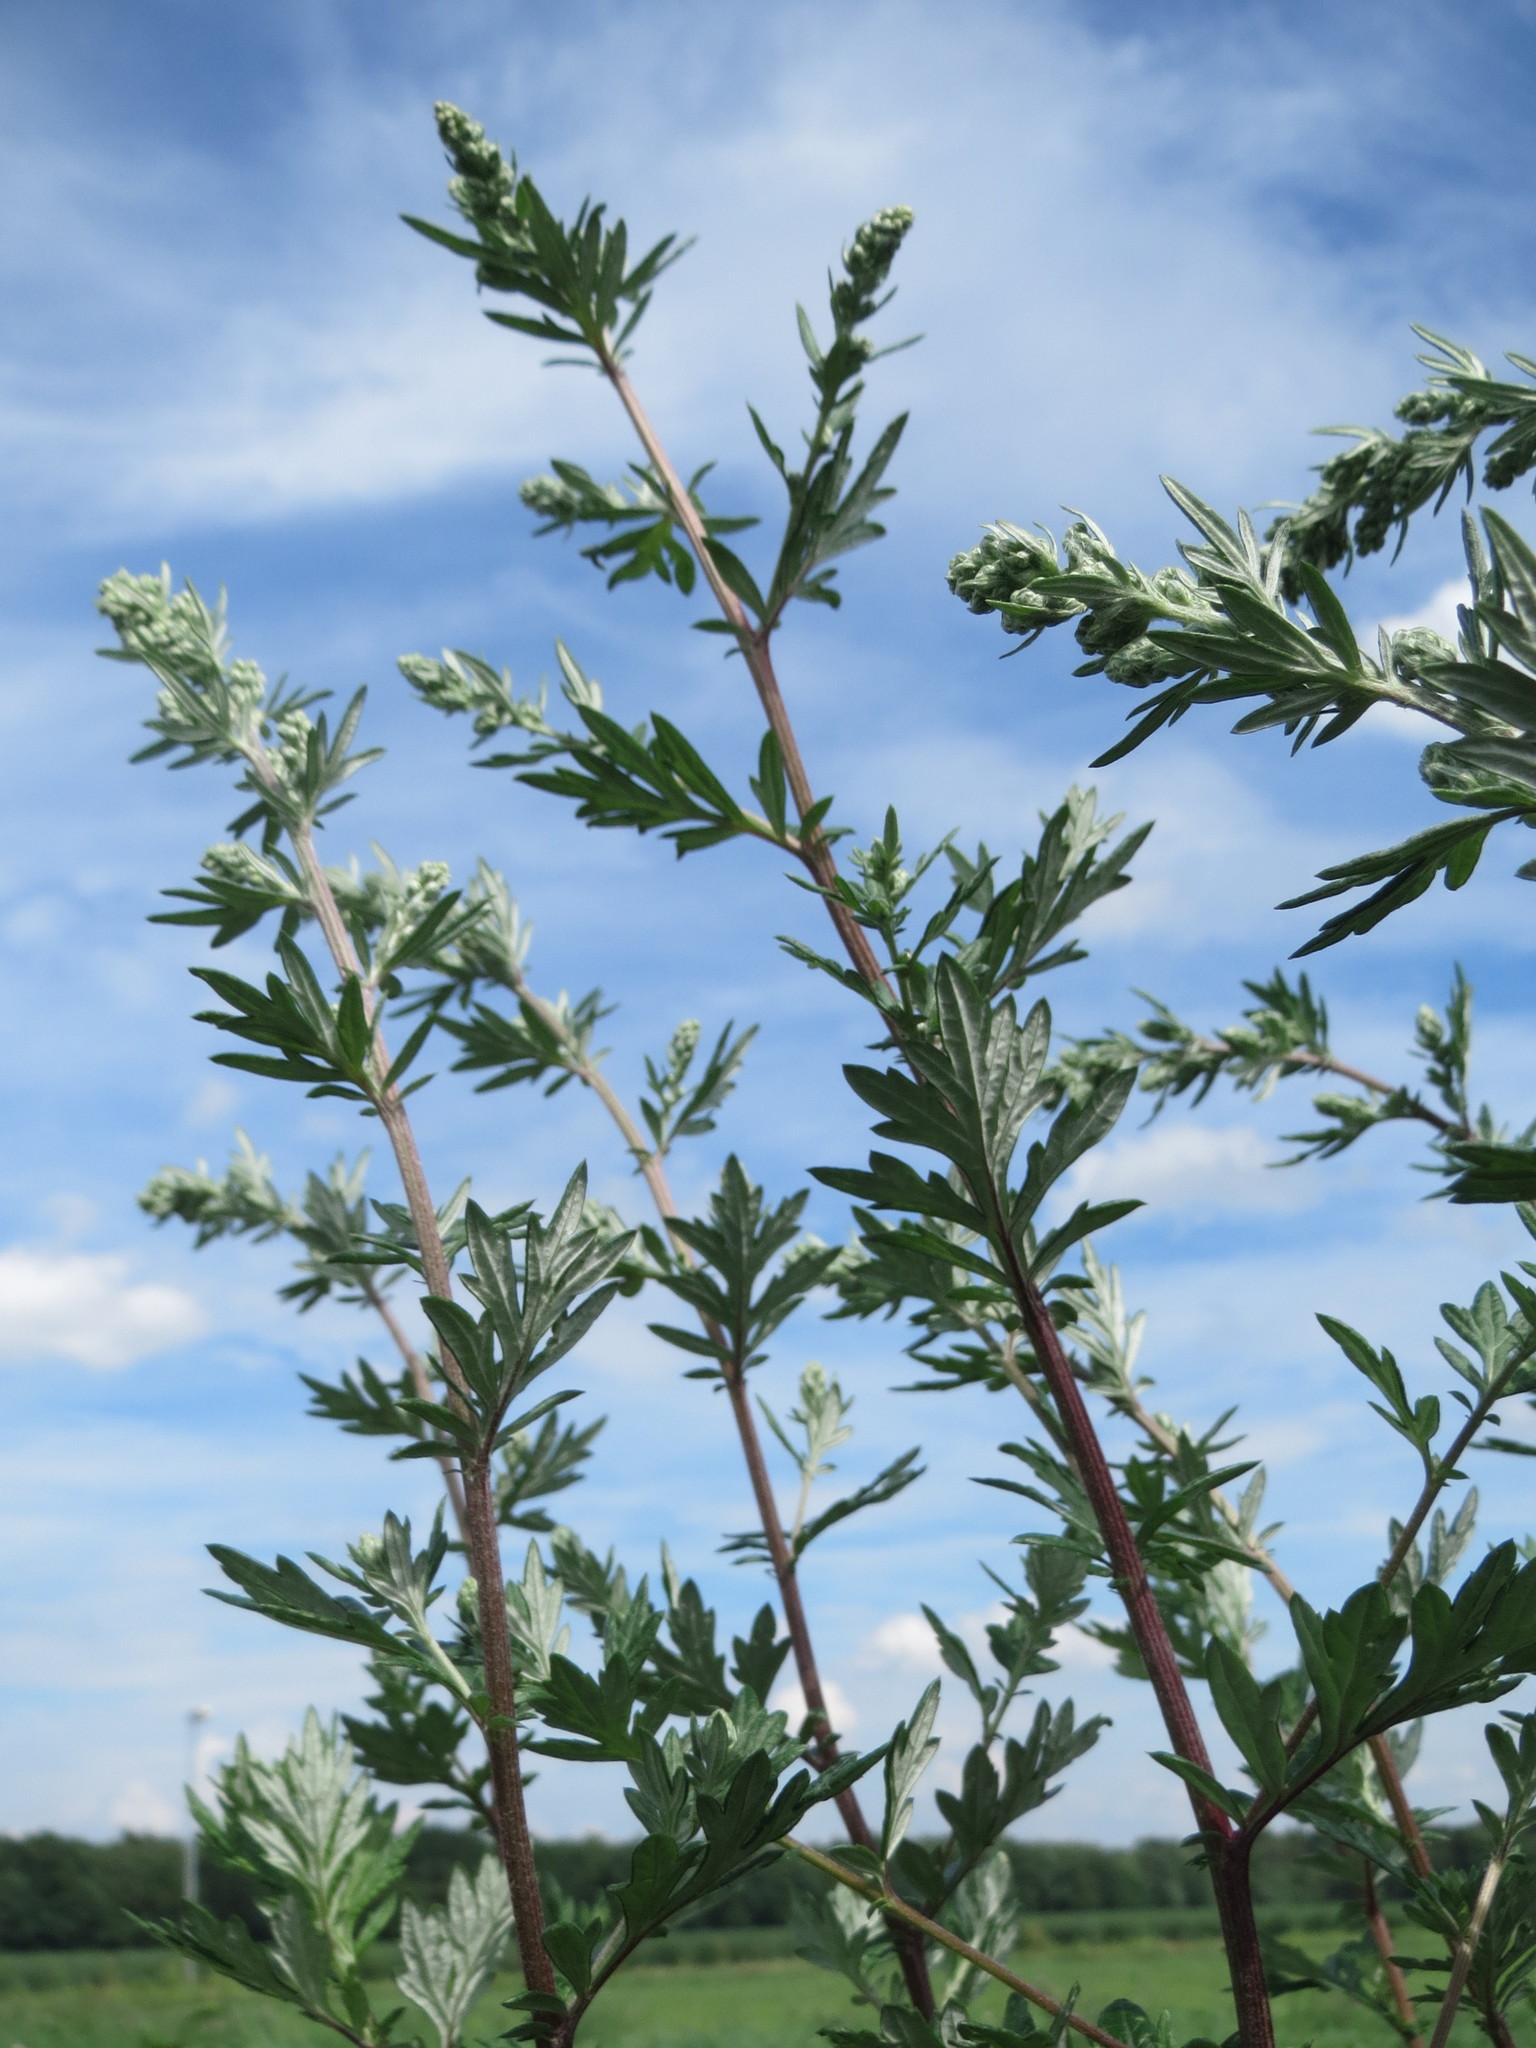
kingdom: Plantae
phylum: Tracheophyta
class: Magnoliopsida
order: Asterales
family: Asteraceae
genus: Artemisia
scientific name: Artemisia vulgaris
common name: Mugwort
